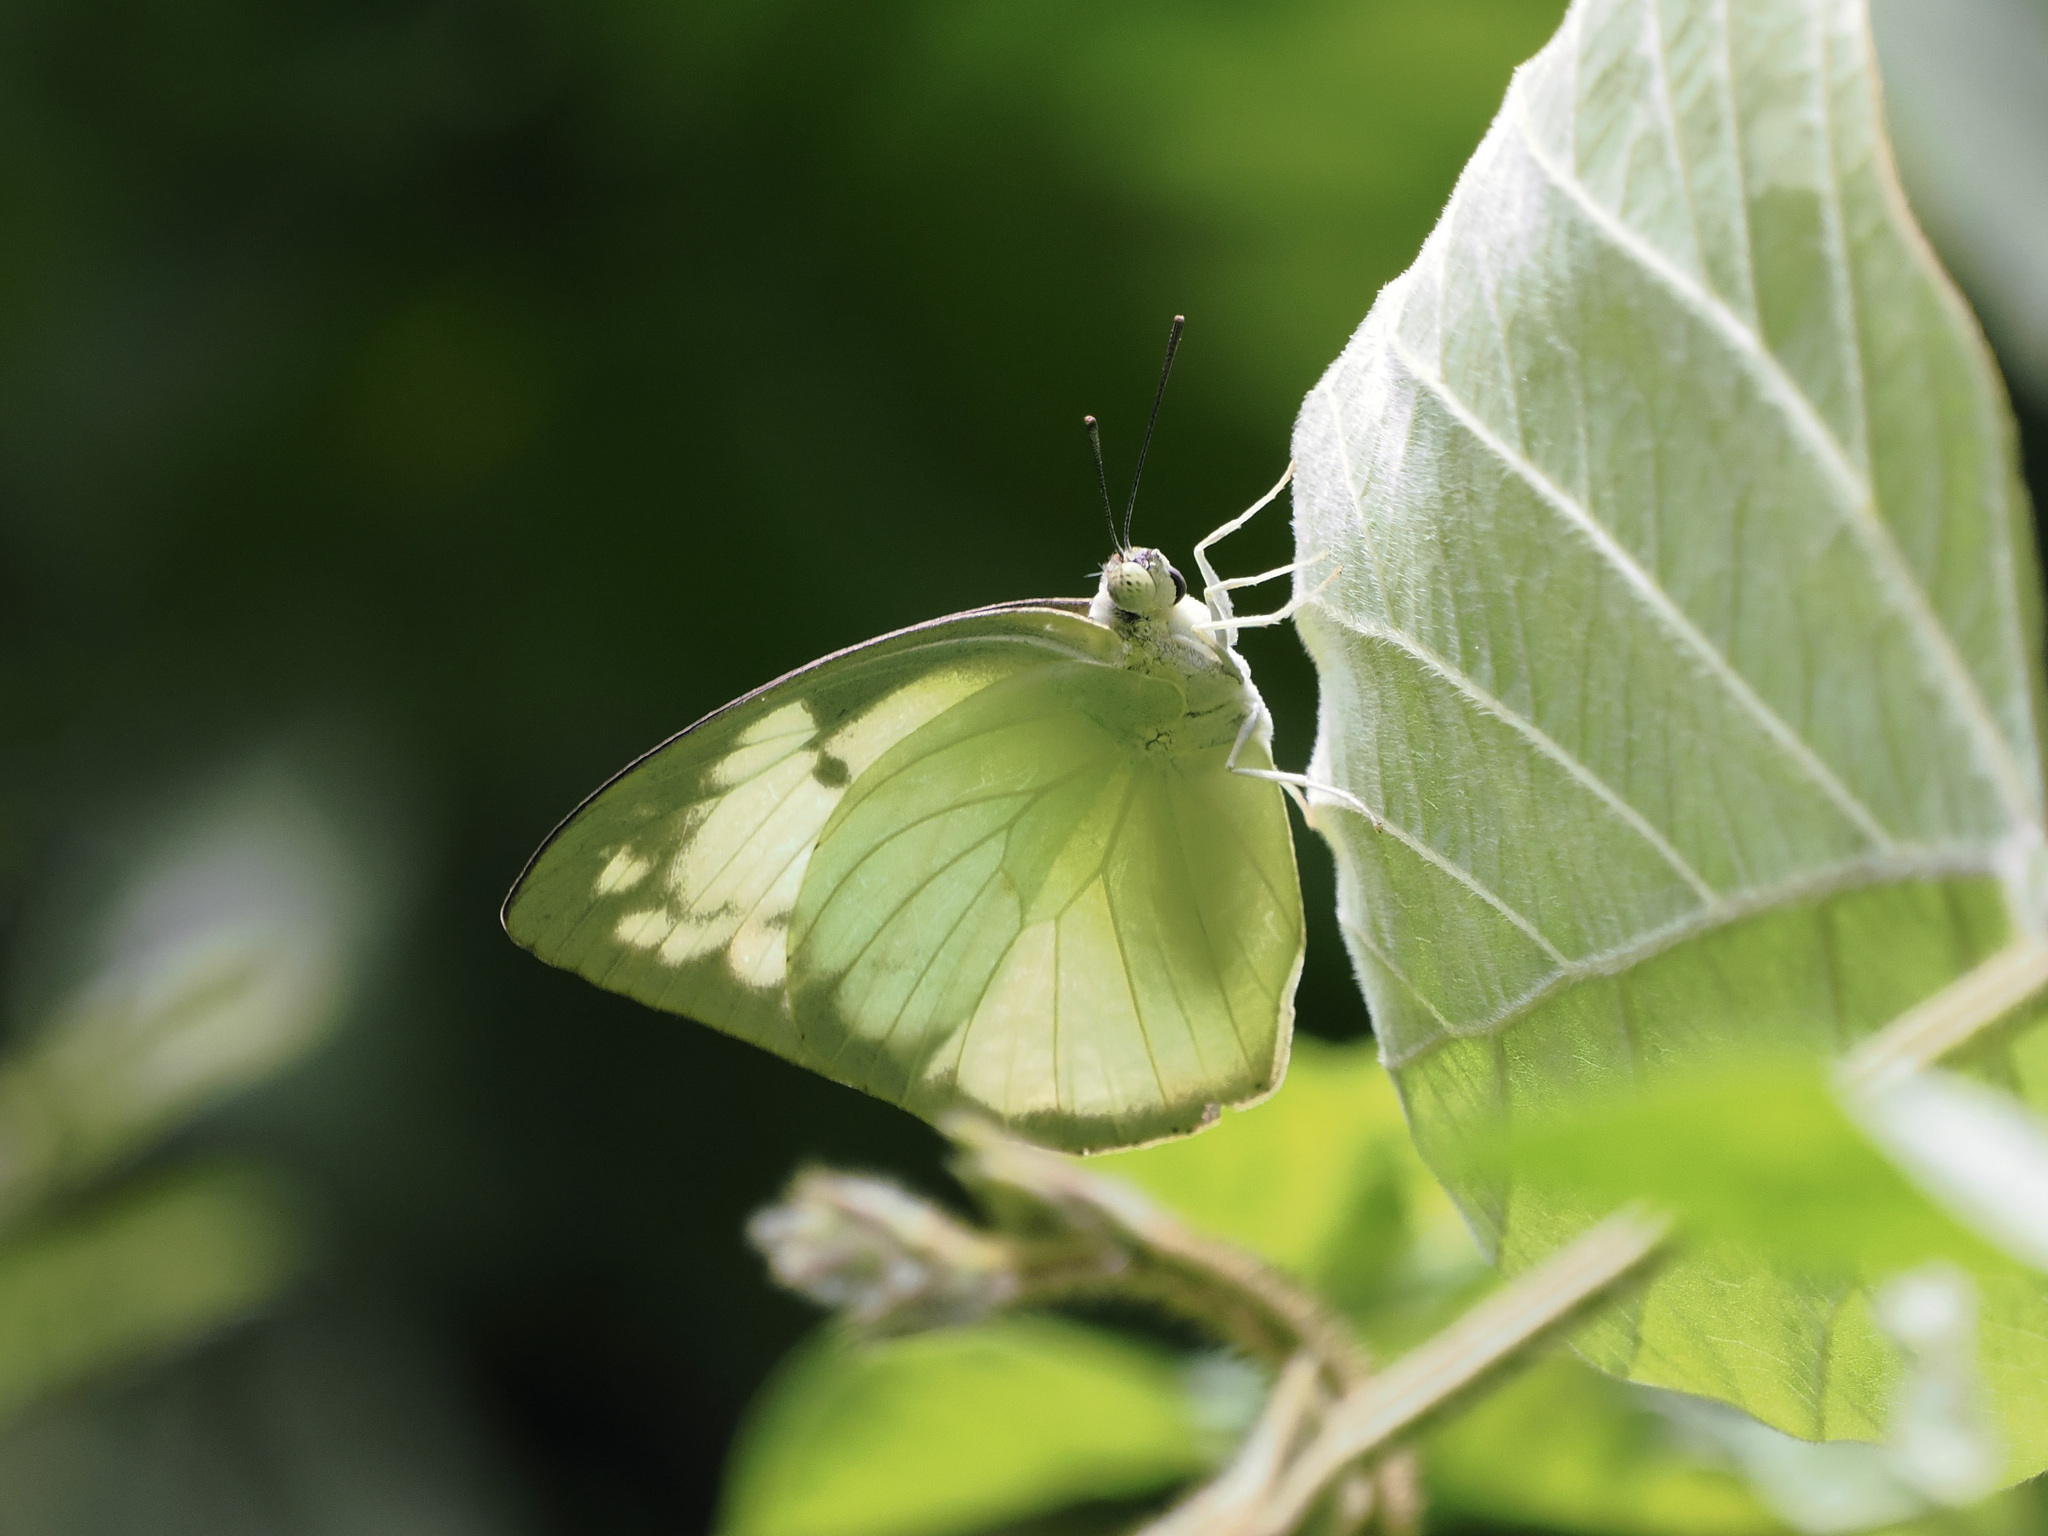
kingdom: Animalia
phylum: Arthropoda
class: Insecta
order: Lepidoptera
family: Pieridae
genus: Catopsilia
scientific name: Catopsilia pomona
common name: Common emigrant
